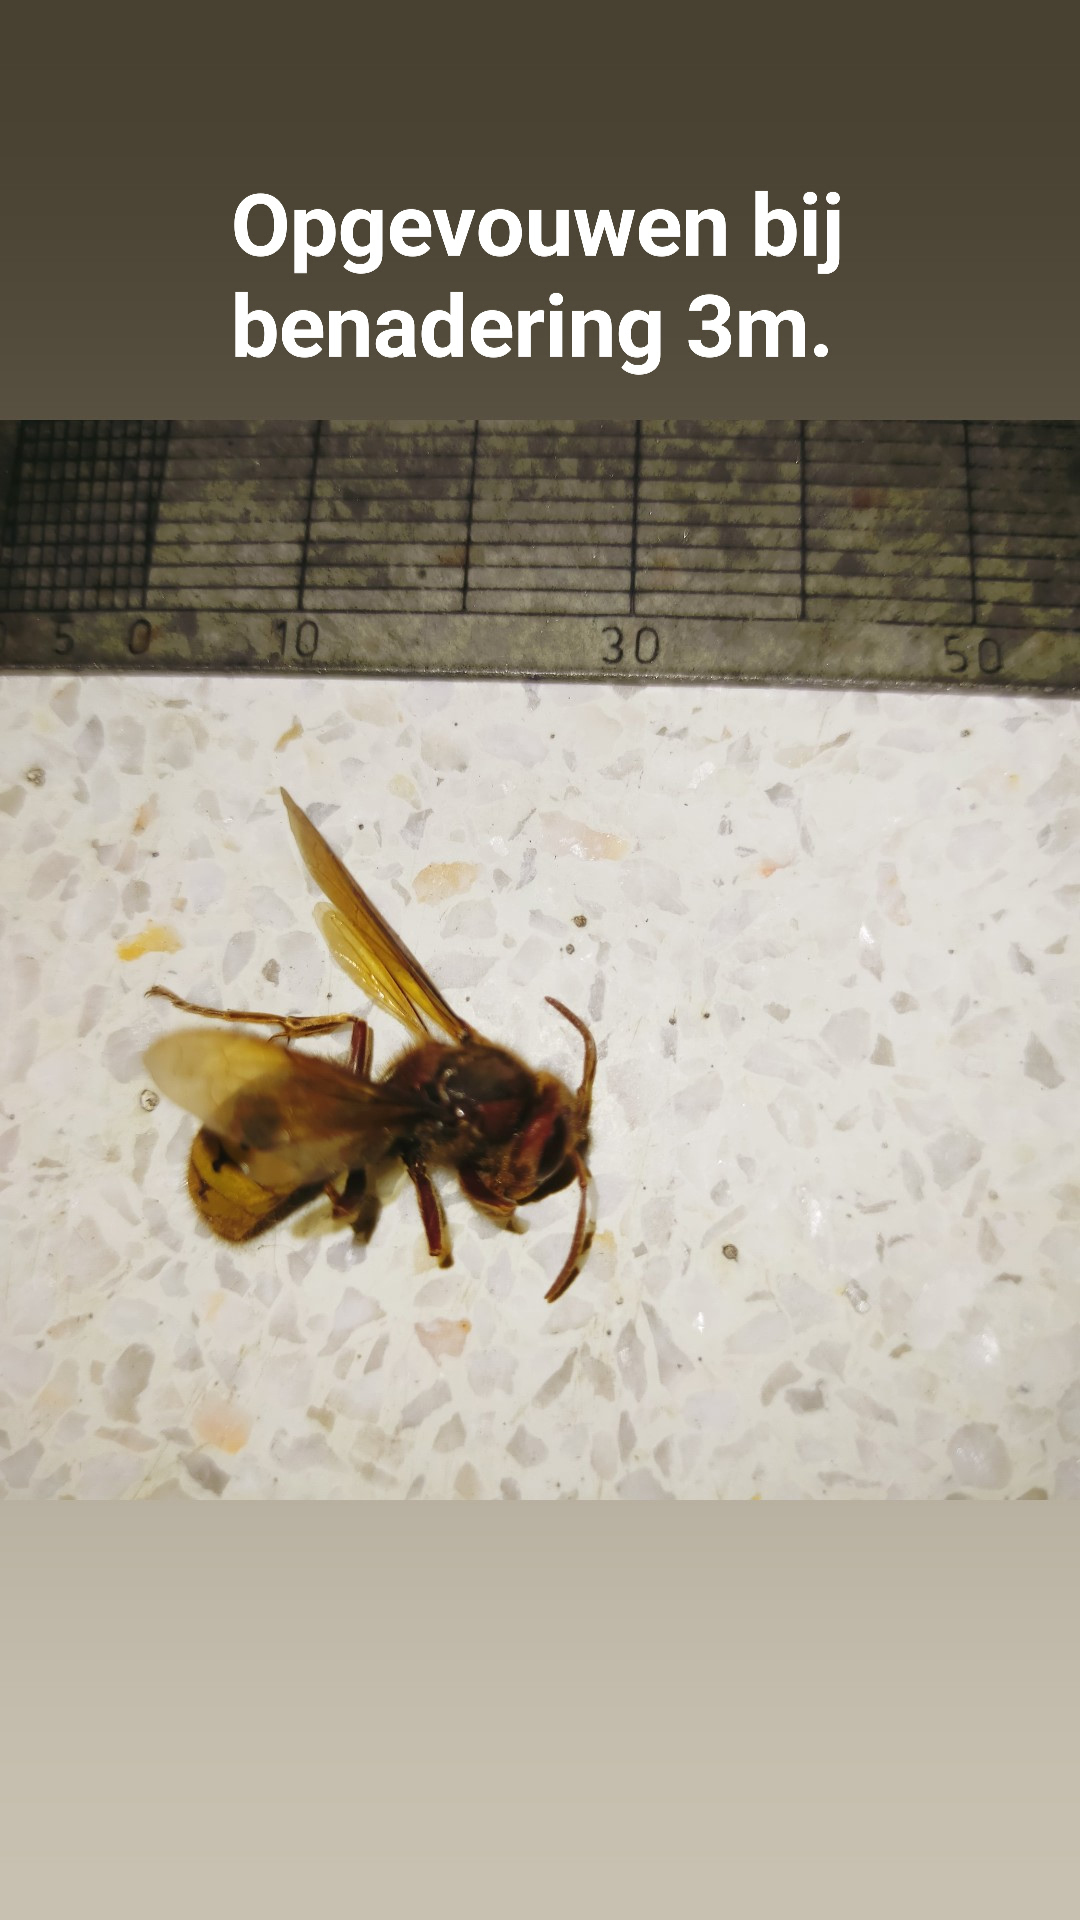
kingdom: Animalia
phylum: Arthropoda
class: Insecta
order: Hymenoptera
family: Vespidae
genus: Vespa
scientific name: Vespa crabro
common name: Hornet
